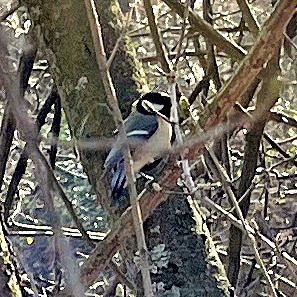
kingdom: Animalia
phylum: Chordata
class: Aves
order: Passeriformes
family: Paridae
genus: Parus
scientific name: Parus major
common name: Great tit
